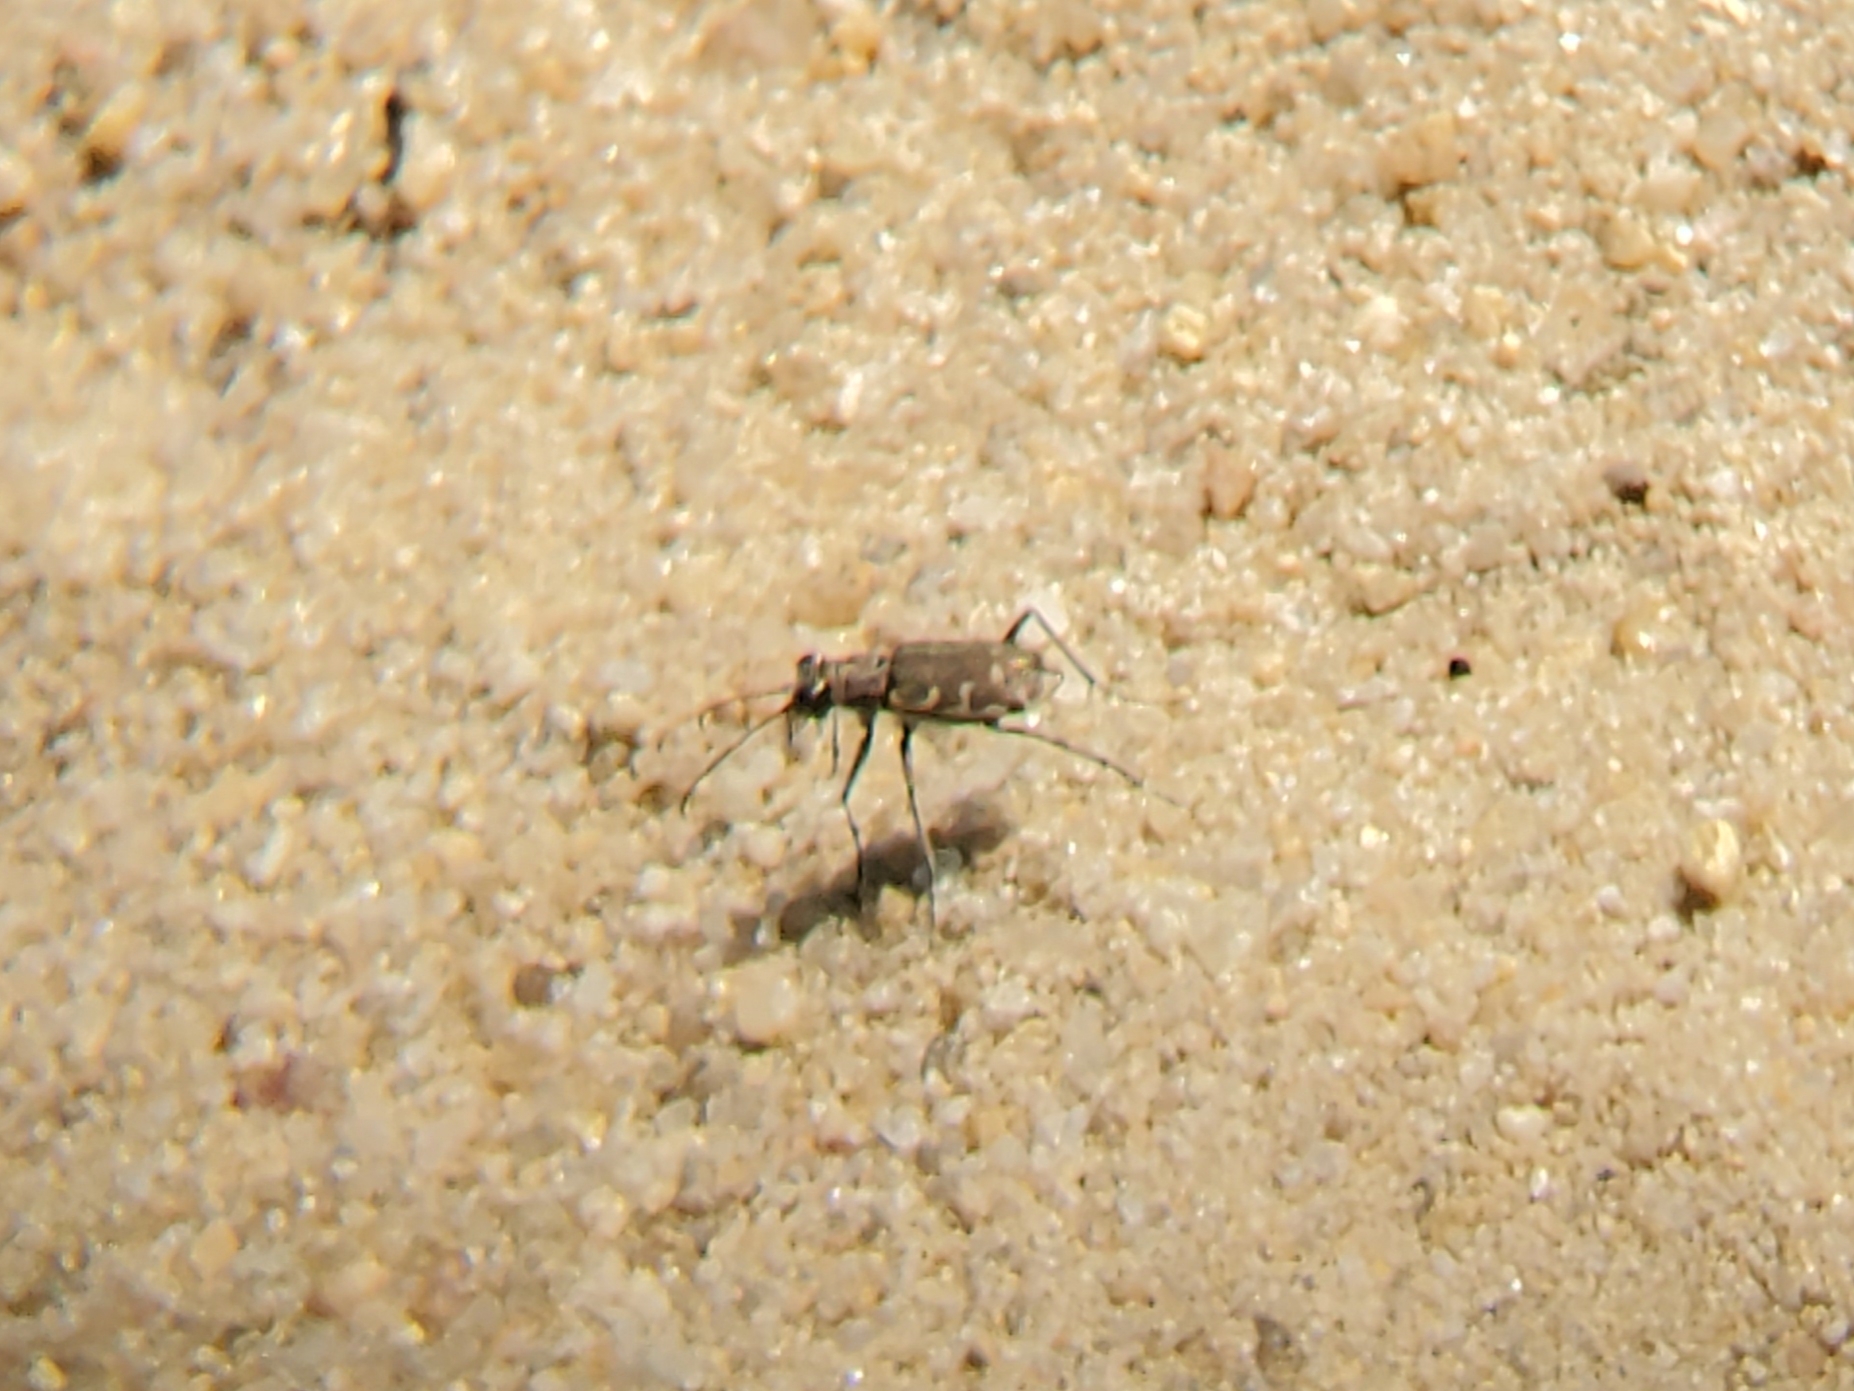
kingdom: Animalia
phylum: Arthropoda
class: Insecta
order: Coleoptera
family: Carabidae
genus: Cicindela
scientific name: Cicindela repanda
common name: Bronzed tiger beetle
